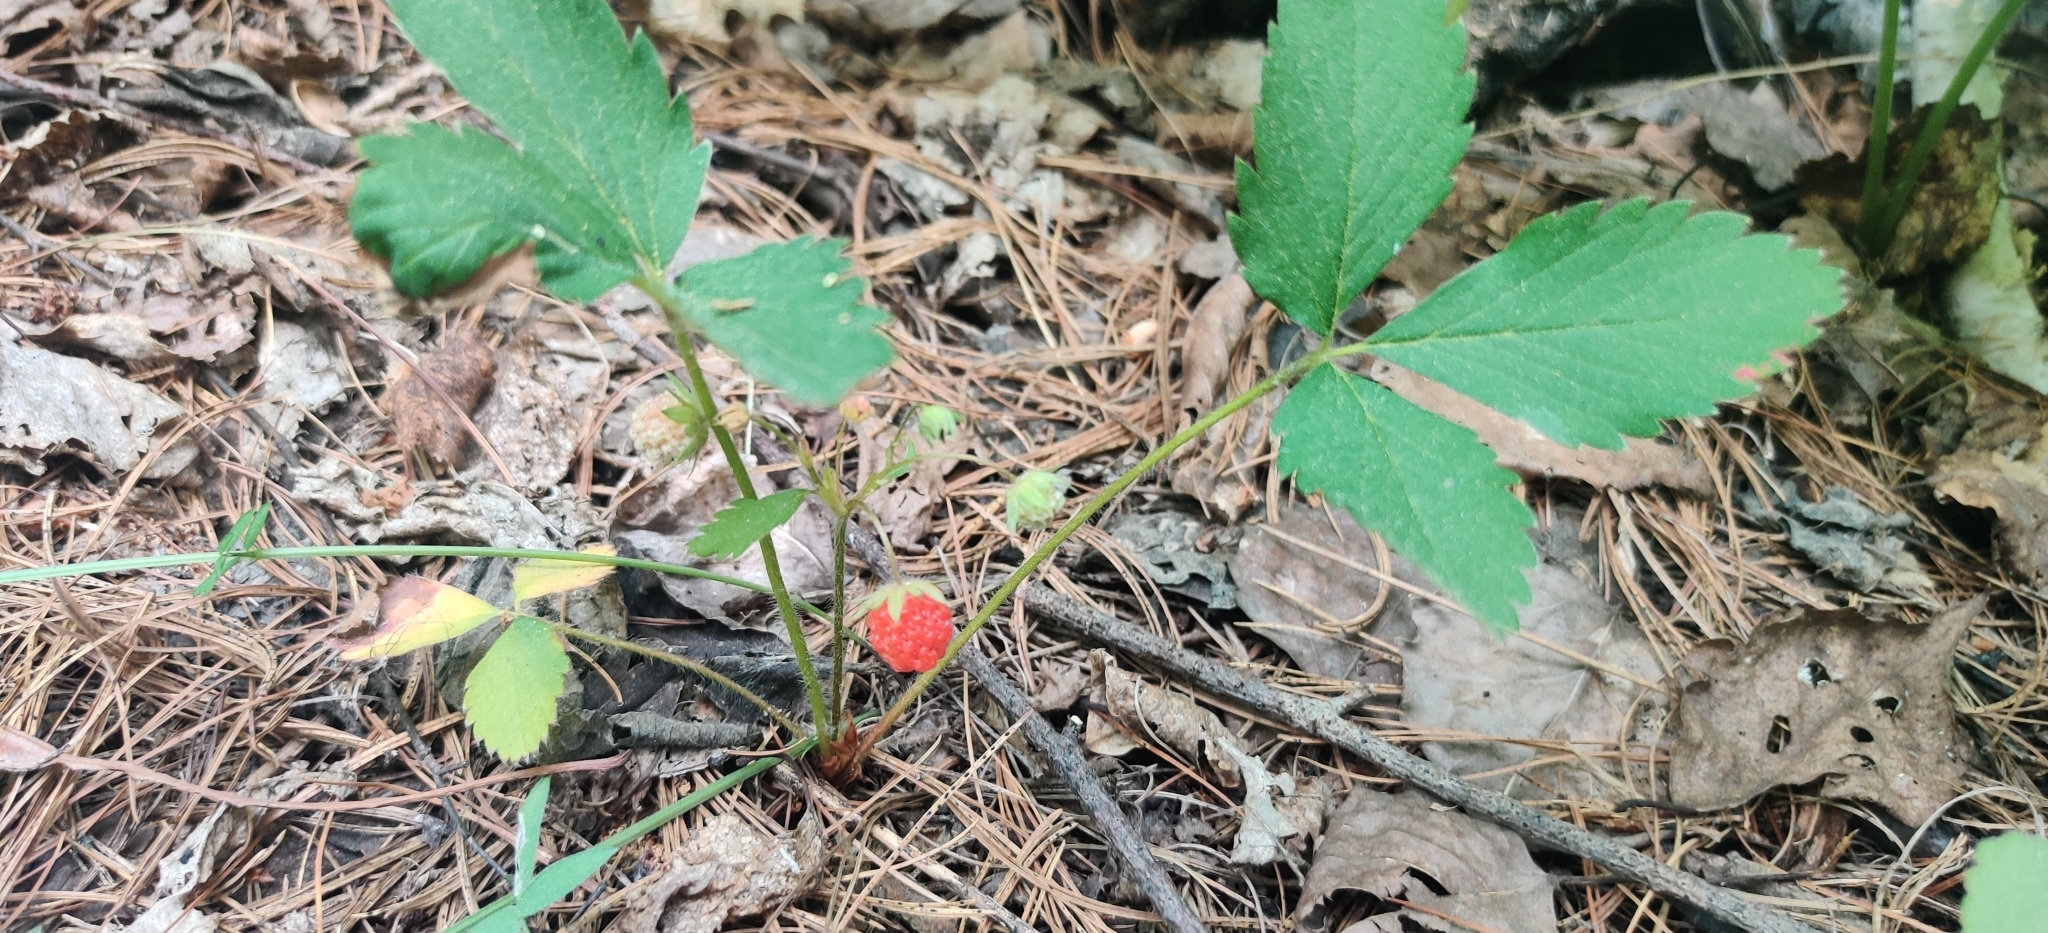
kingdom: Plantae
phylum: Tracheophyta
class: Magnoliopsida
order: Rosales
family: Rosaceae
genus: Fragaria
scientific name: Fragaria virginiana
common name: Thickleaved wild strawberry
